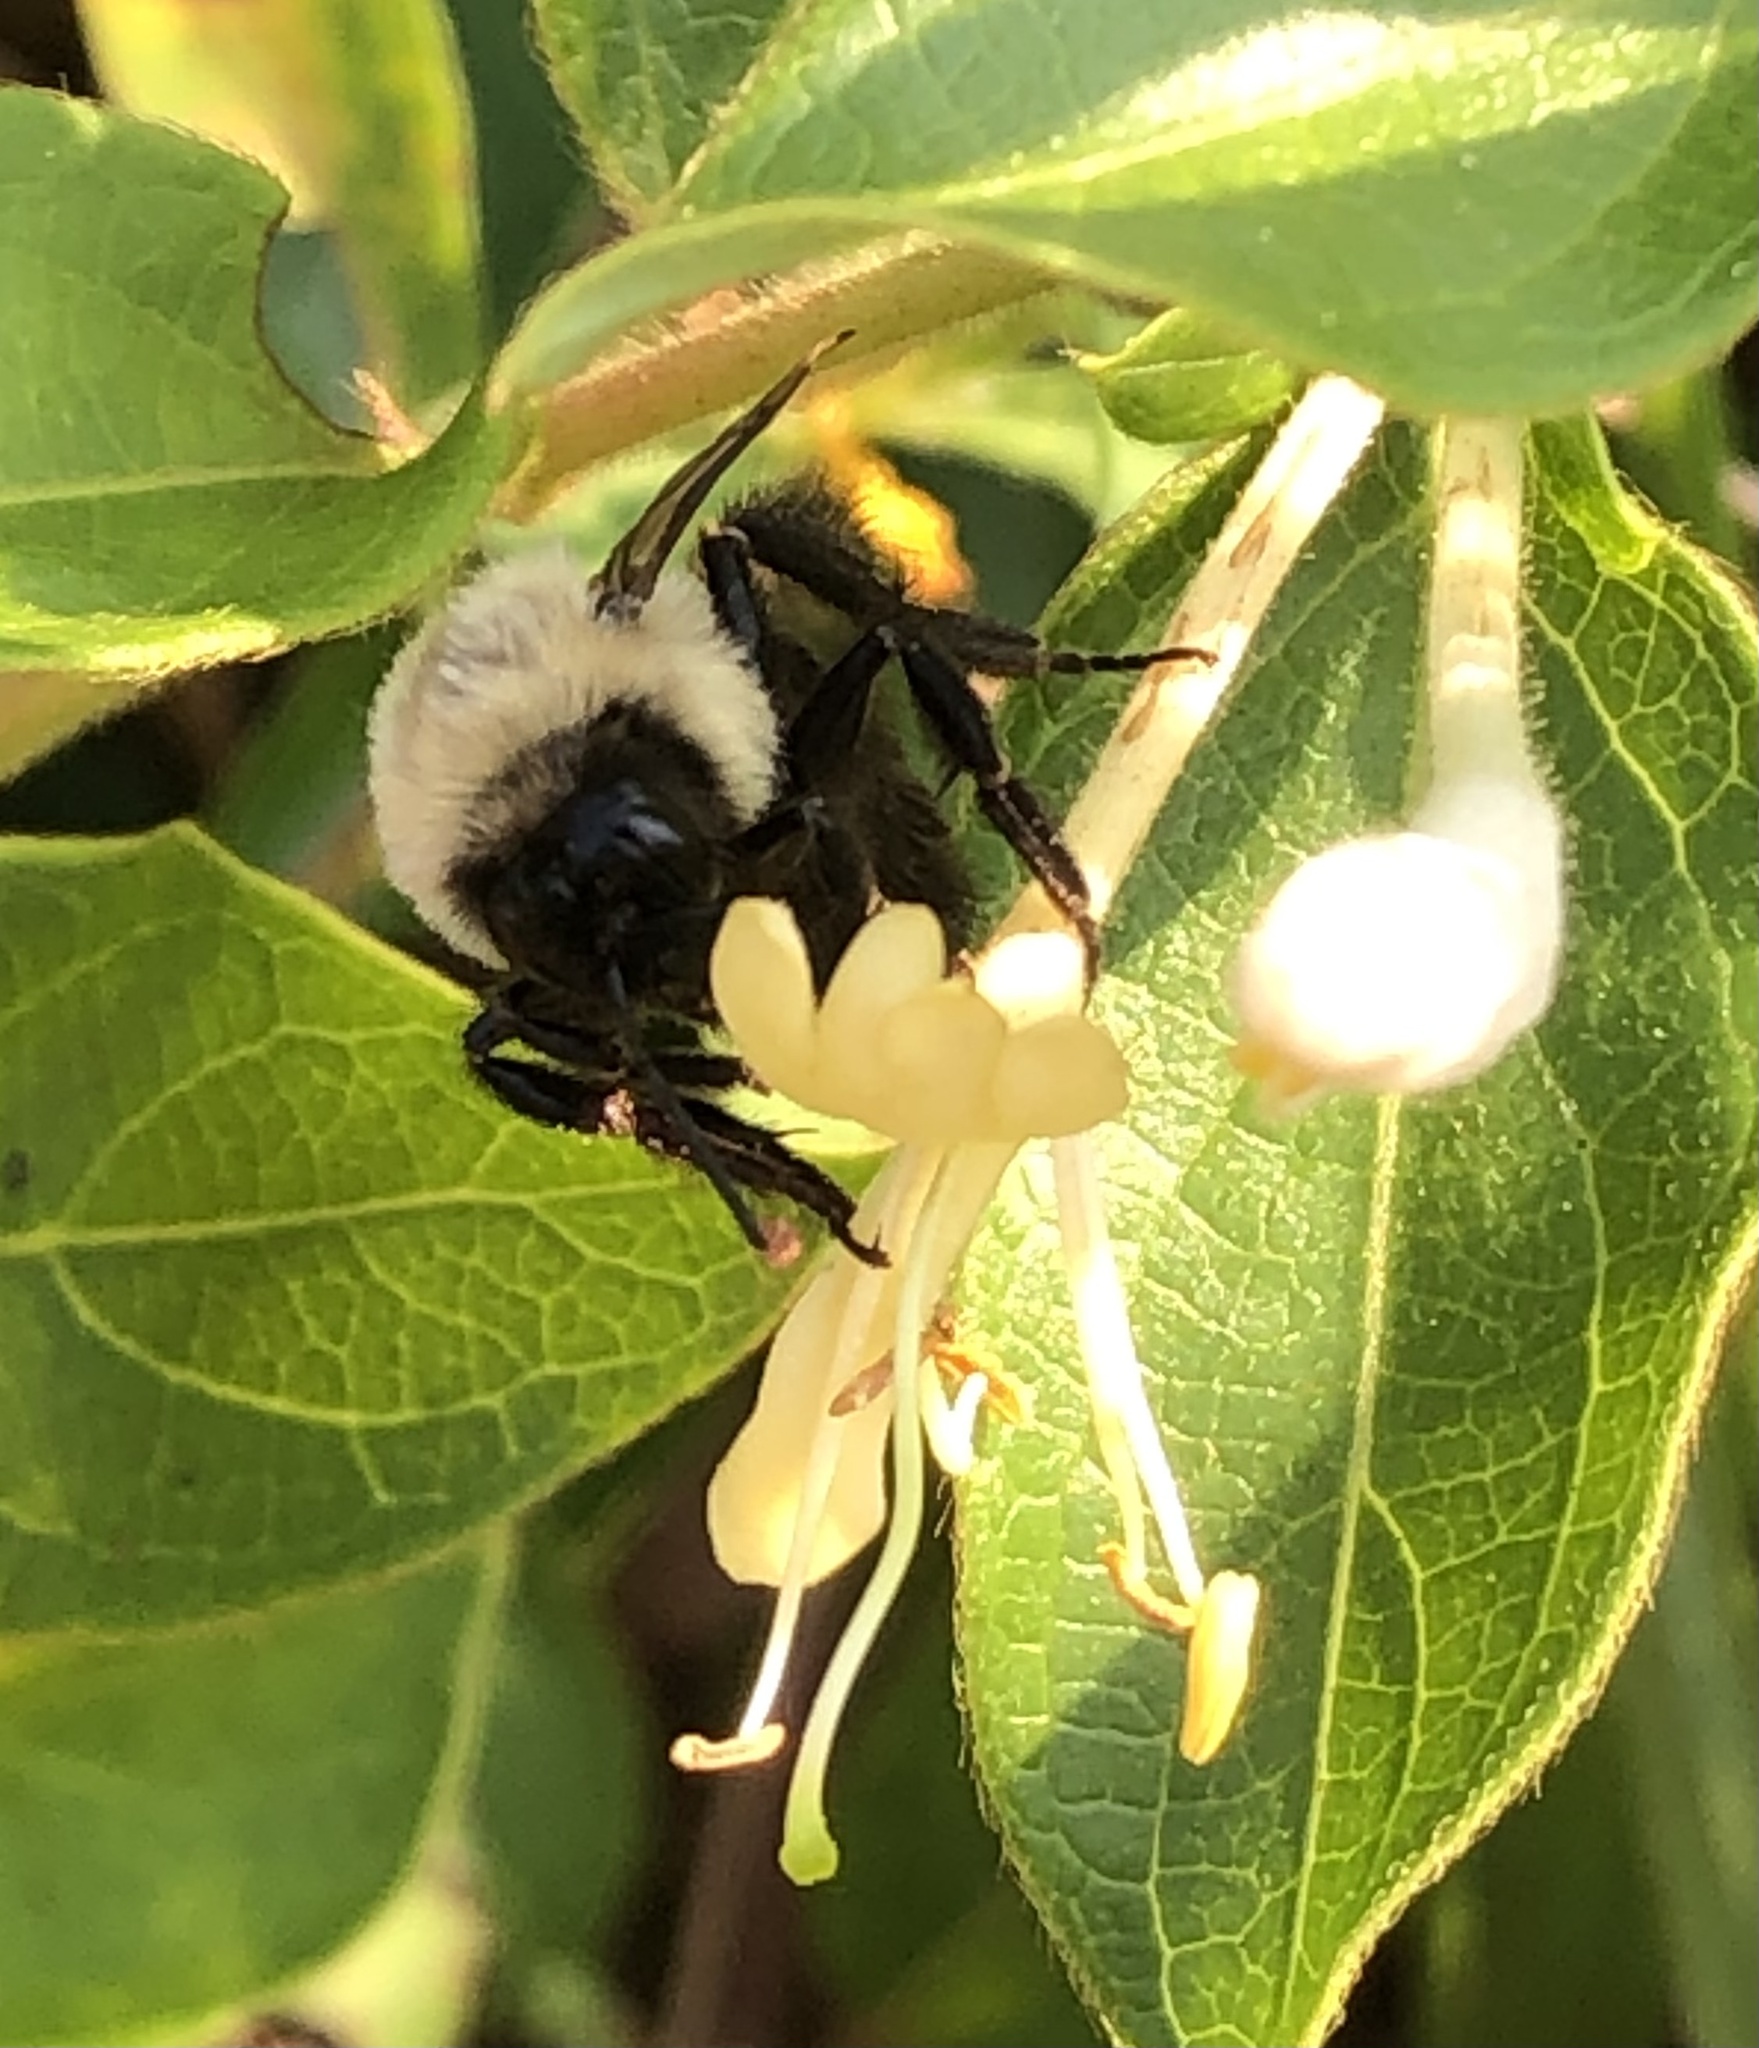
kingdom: Animalia
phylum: Arthropoda
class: Insecta
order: Hymenoptera
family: Apidae
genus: Bombus
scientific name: Bombus impatiens
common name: Common eastern bumble bee
